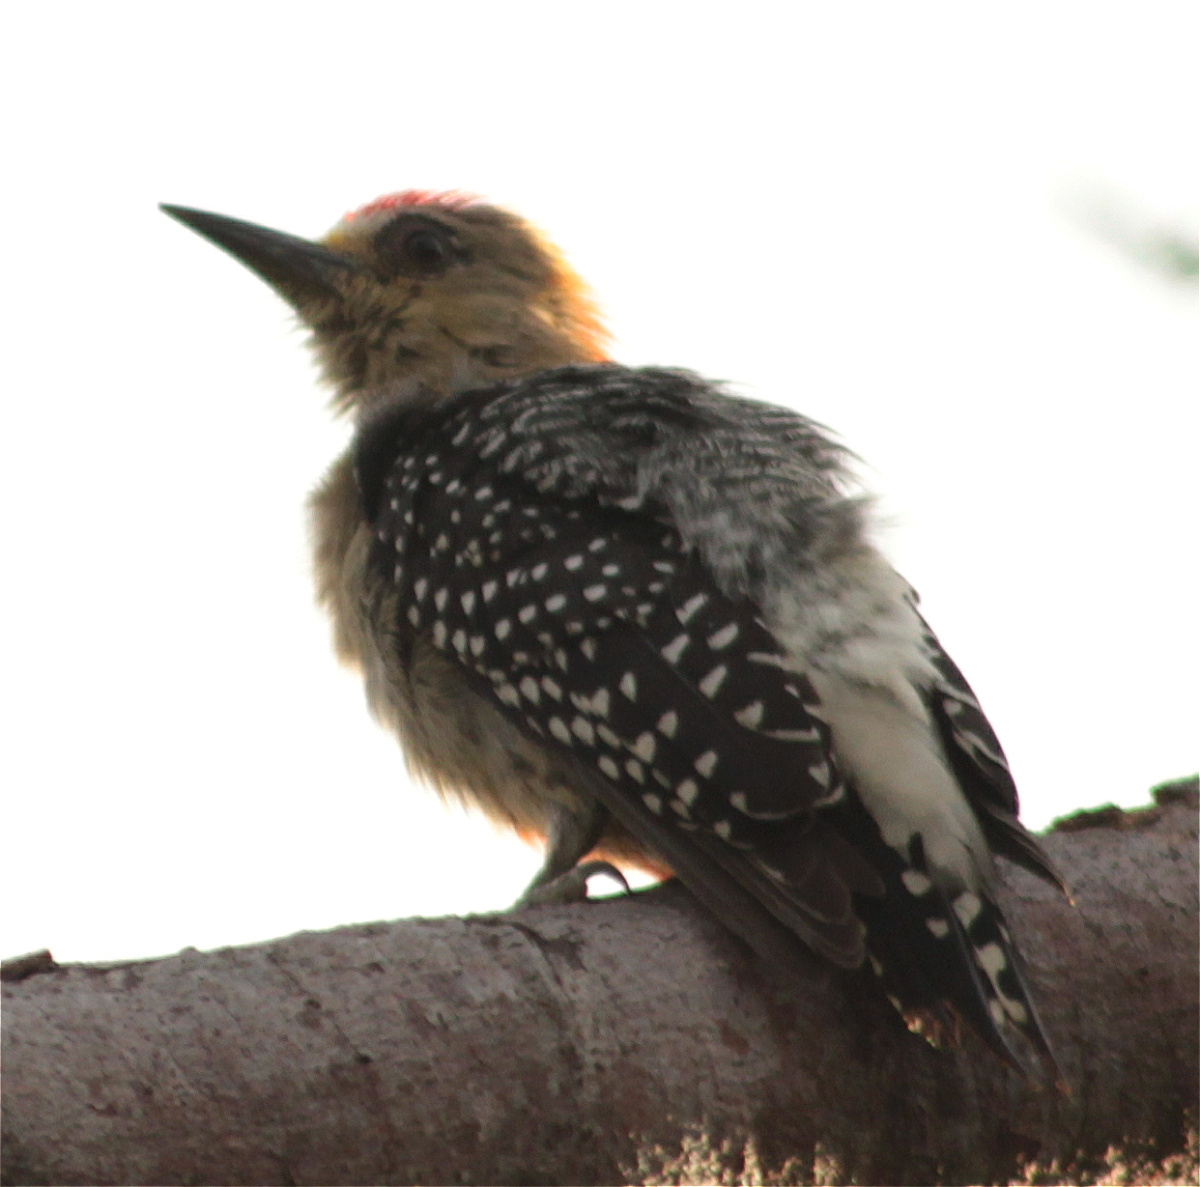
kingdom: Animalia
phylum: Chordata
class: Aves
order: Piciformes
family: Picidae
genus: Melanerpes
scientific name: Melanerpes rubricapillus
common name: Red-crowned woodpecker
